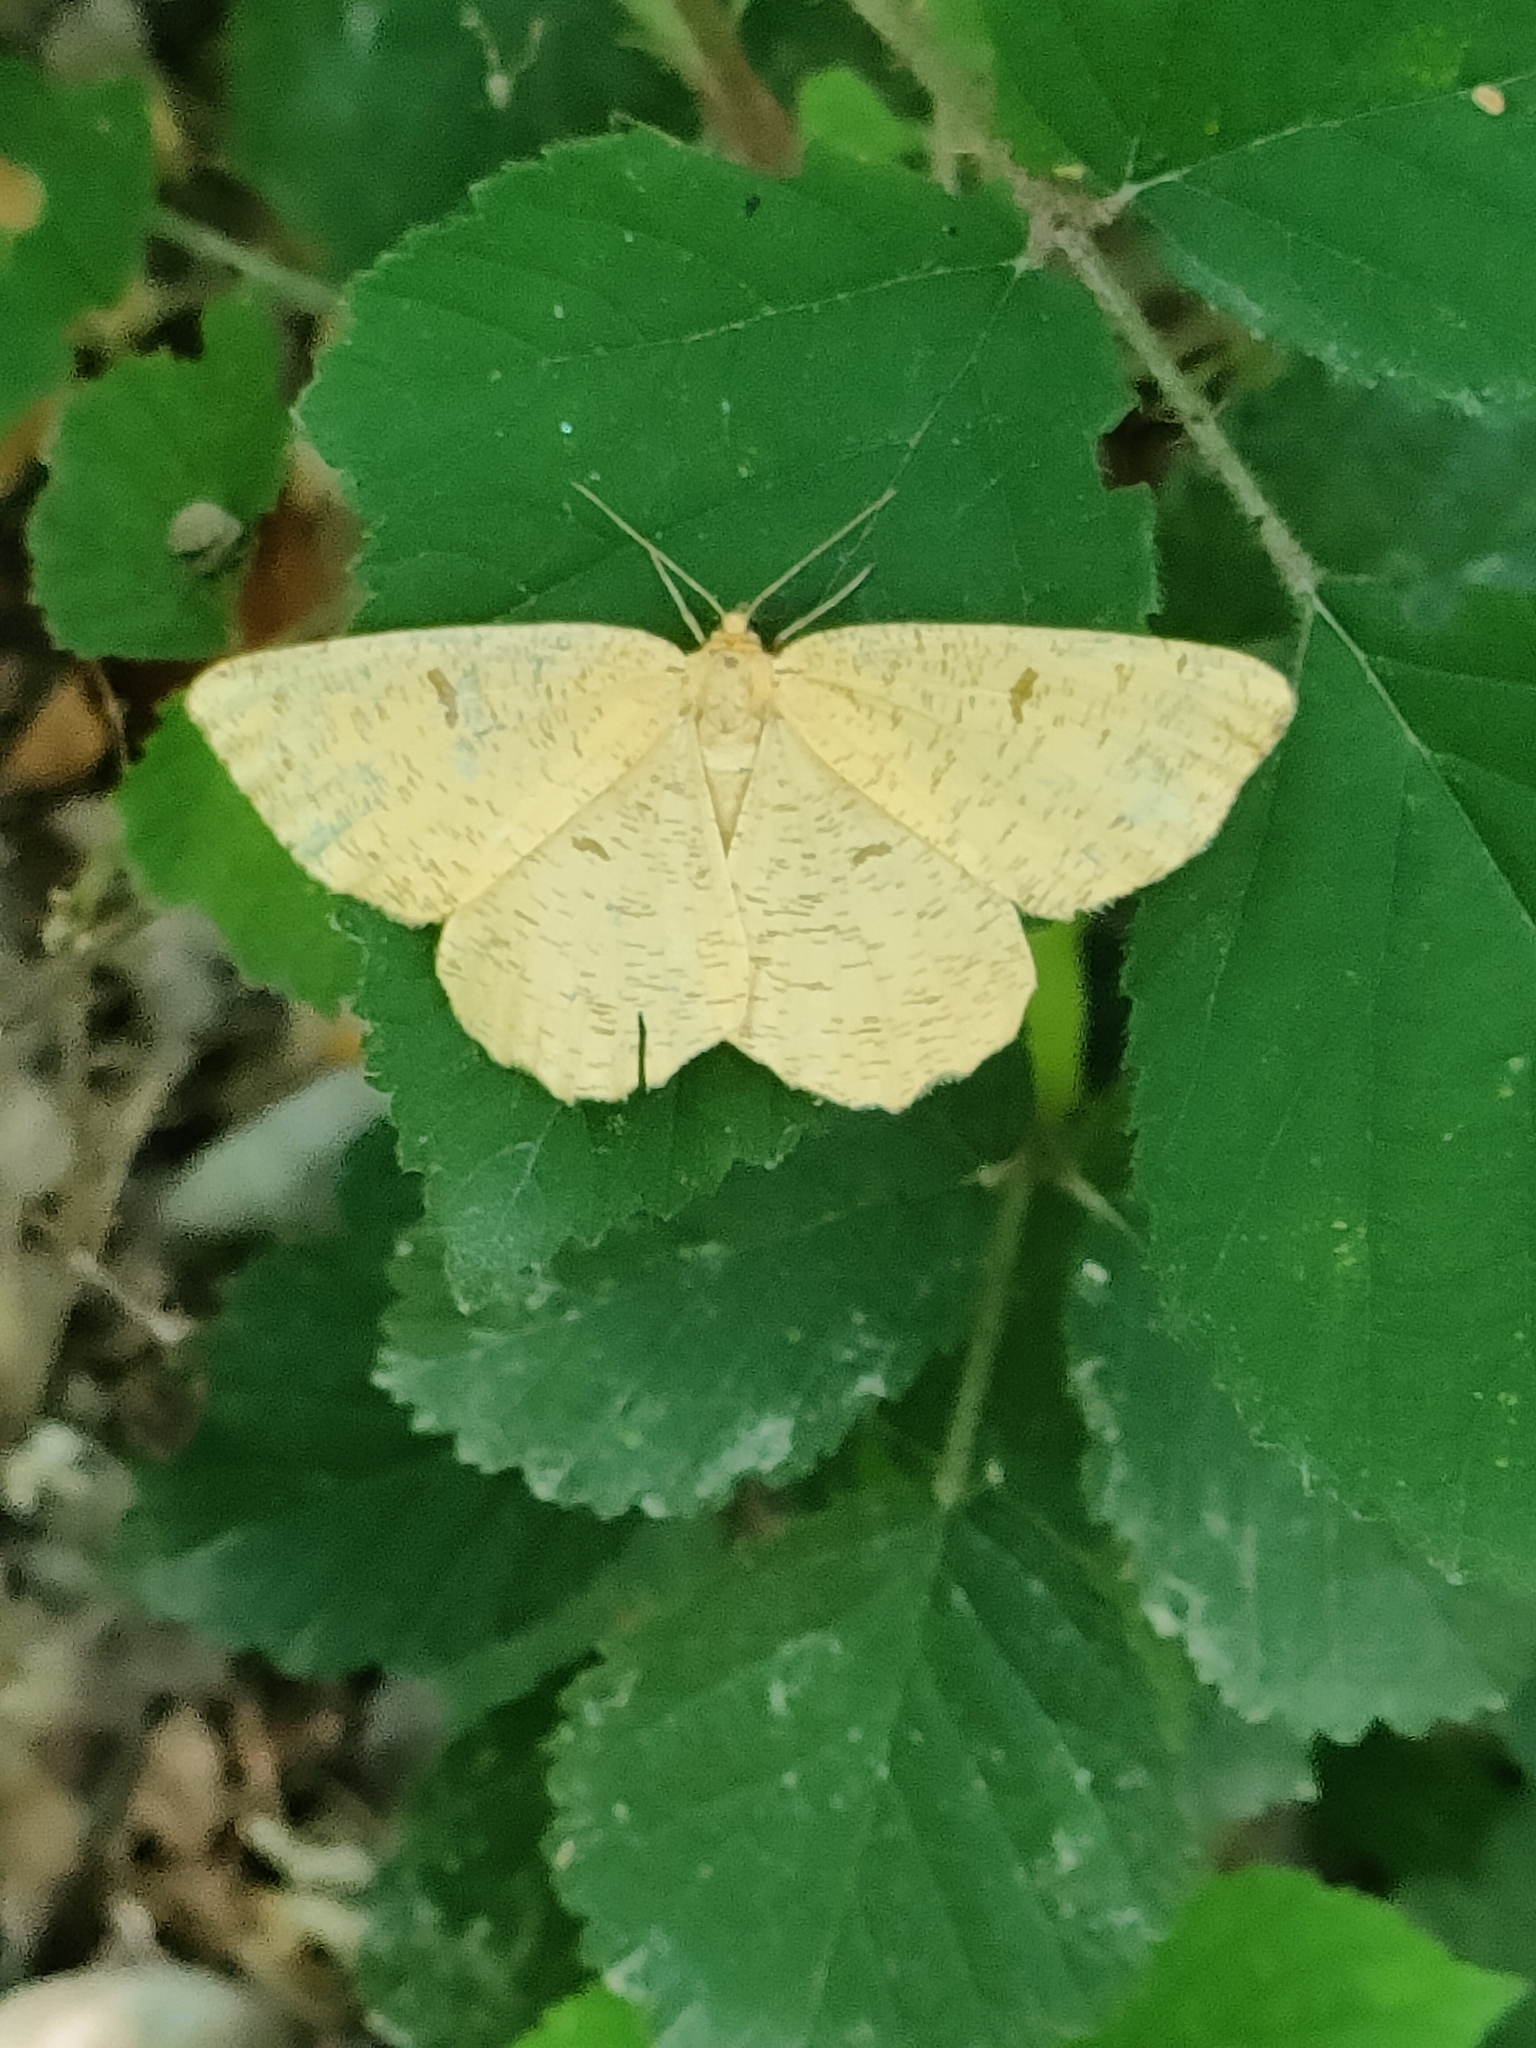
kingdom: Animalia
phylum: Arthropoda
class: Insecta
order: Lepidoptera
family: Geometridae
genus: Angerona
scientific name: Angerona prunaria
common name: Orange moth
